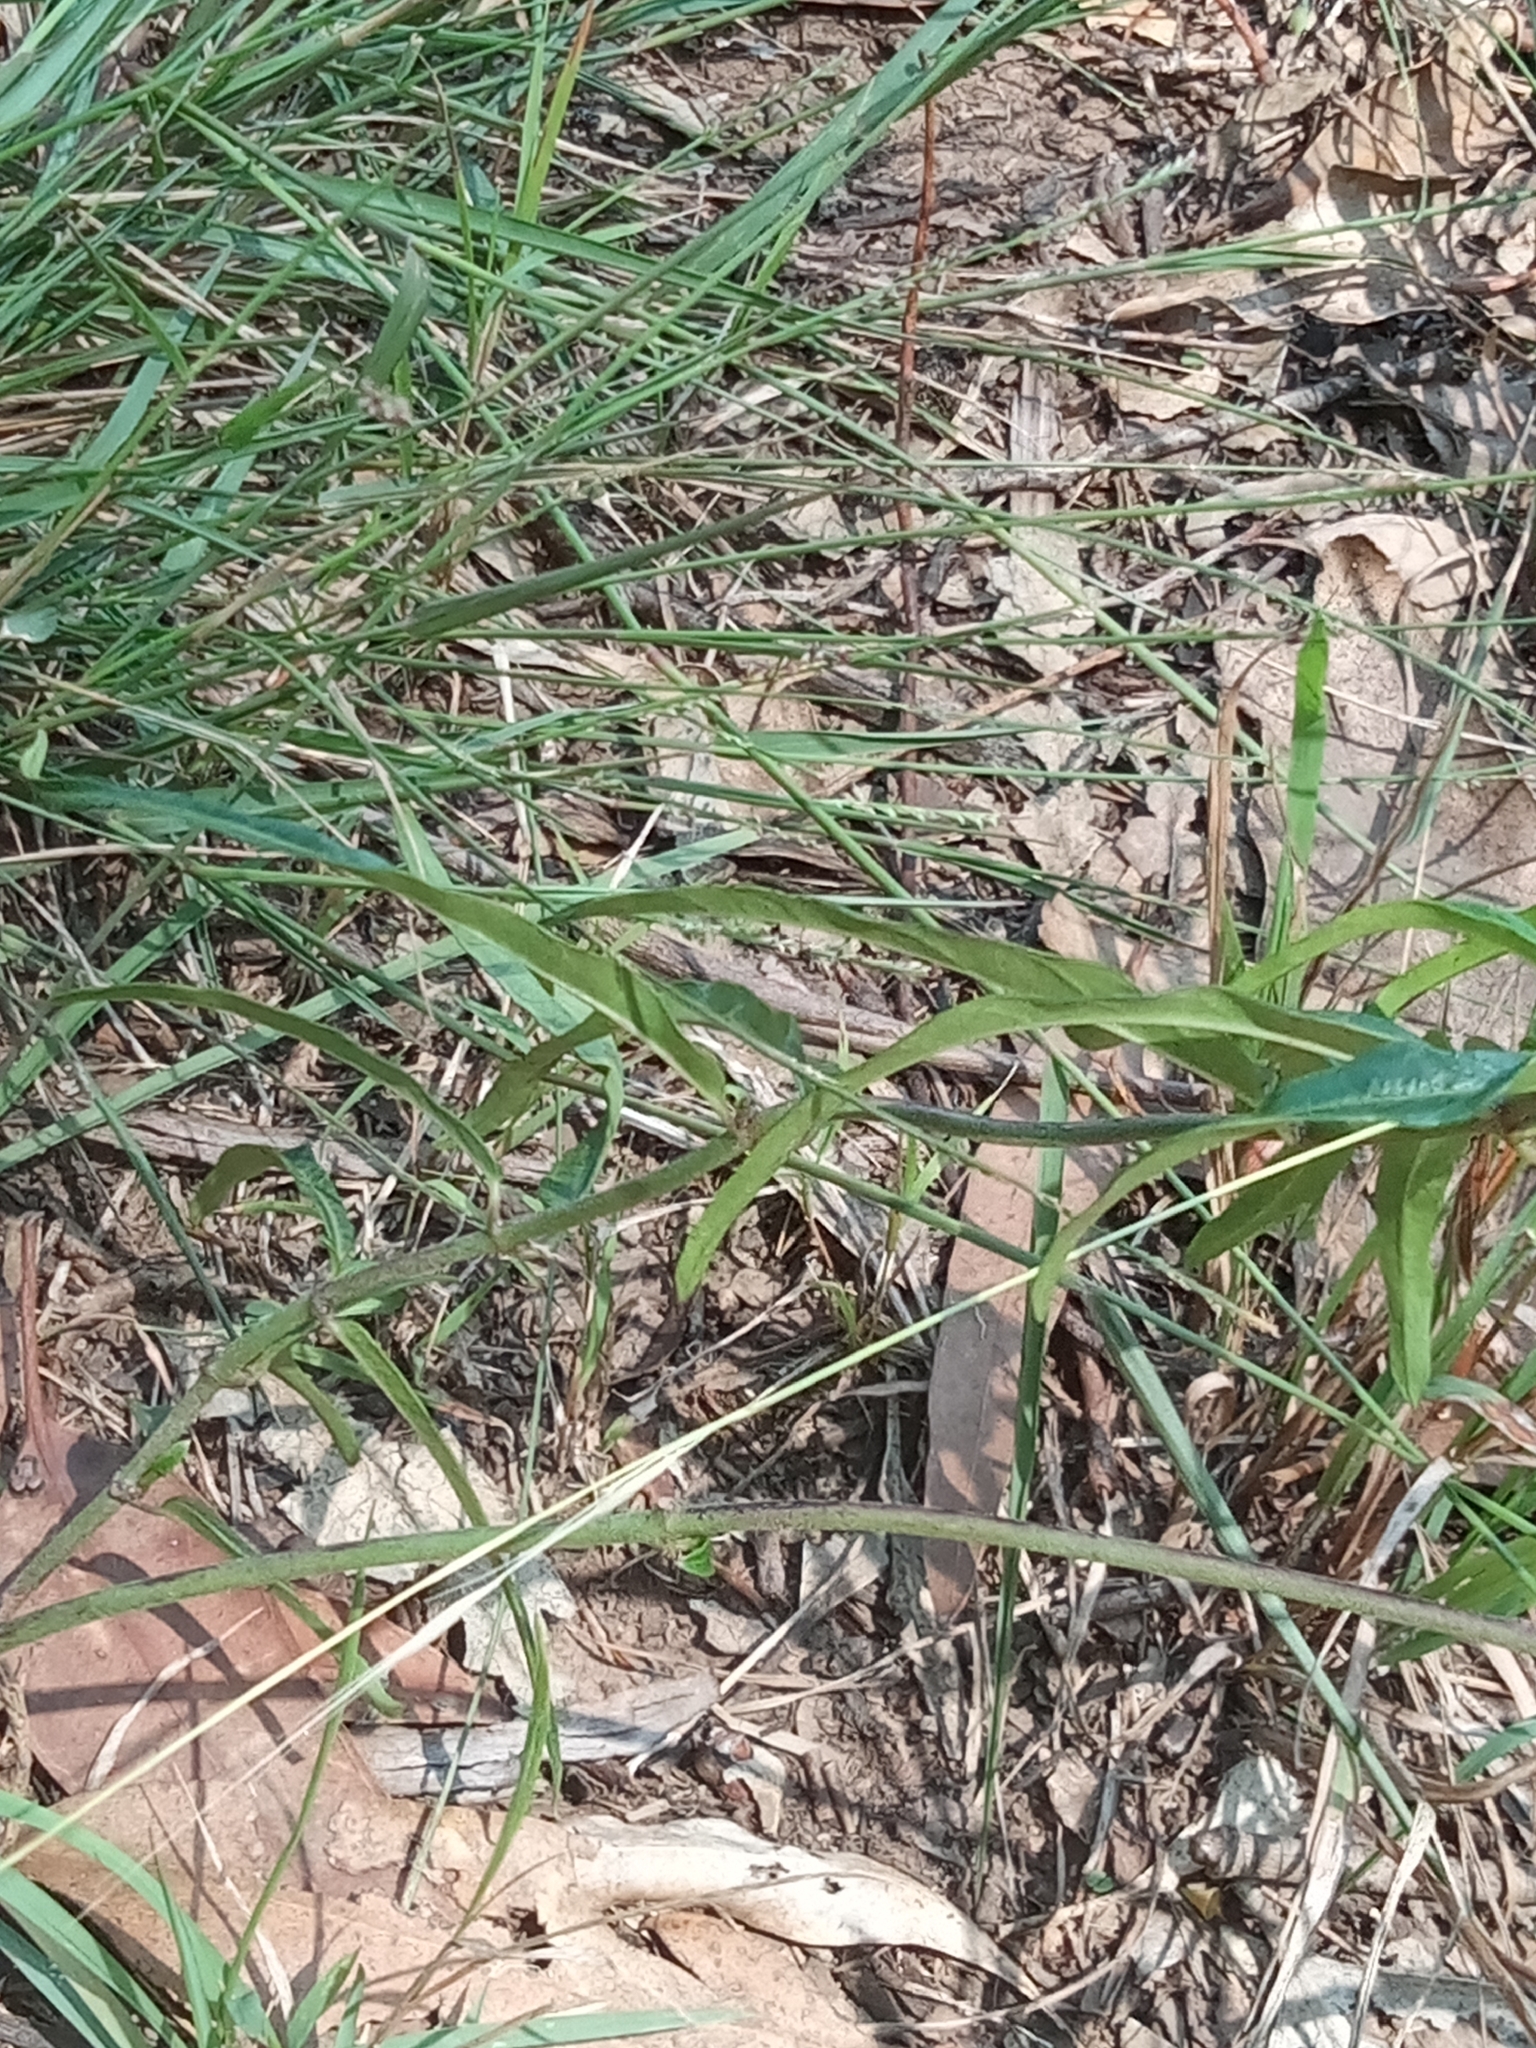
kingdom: Plantae
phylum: Tracheophyta
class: Magnoliopsida
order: Gentianales
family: Apocynaceae
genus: Leichhardtia
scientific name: Leichhardtia viridiflora
